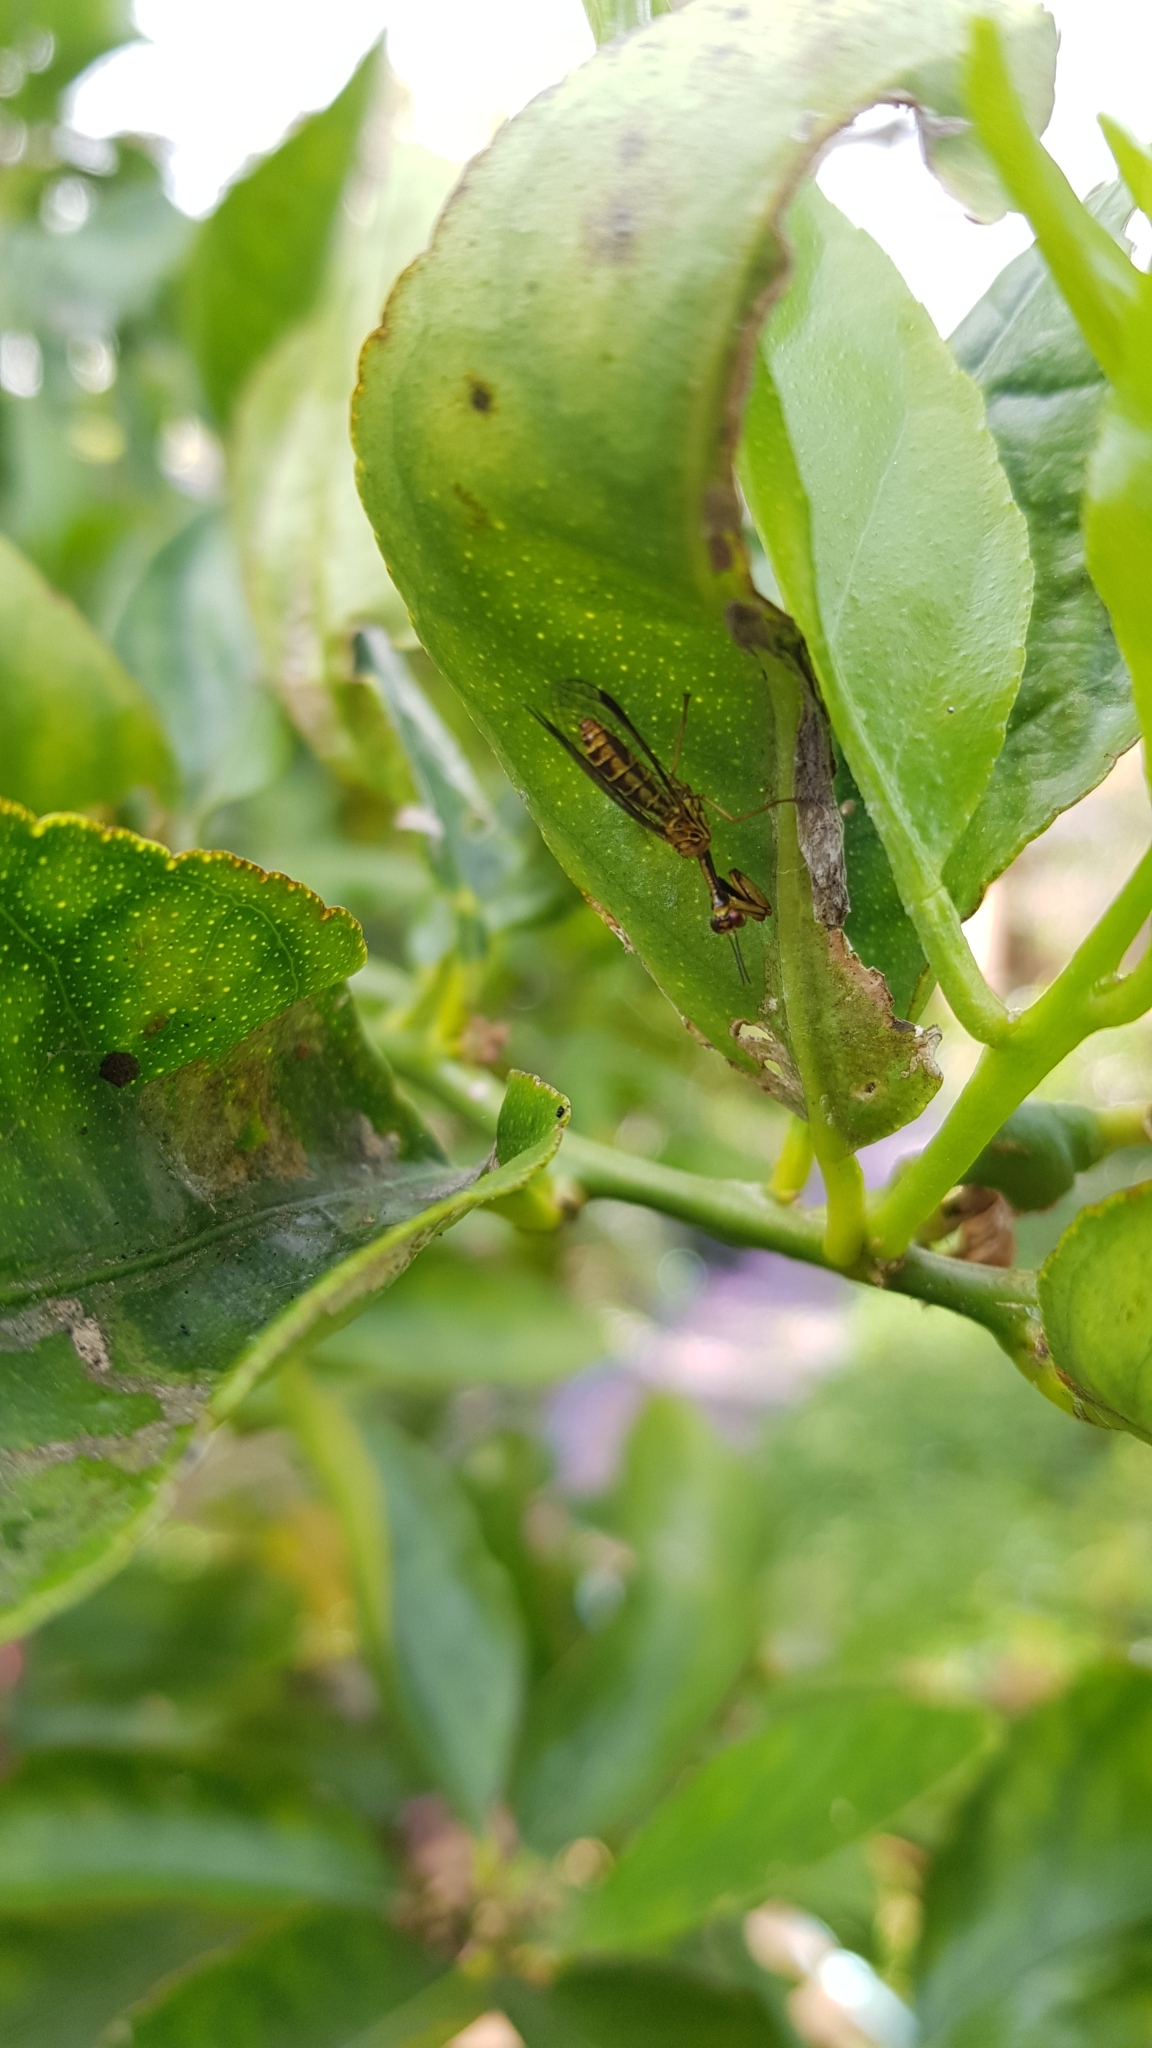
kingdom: Animalia
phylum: Arthropoda
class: Insecta
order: Neuroptera
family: Mantispidae
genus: Spaminta
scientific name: Spaminta minjerribae
